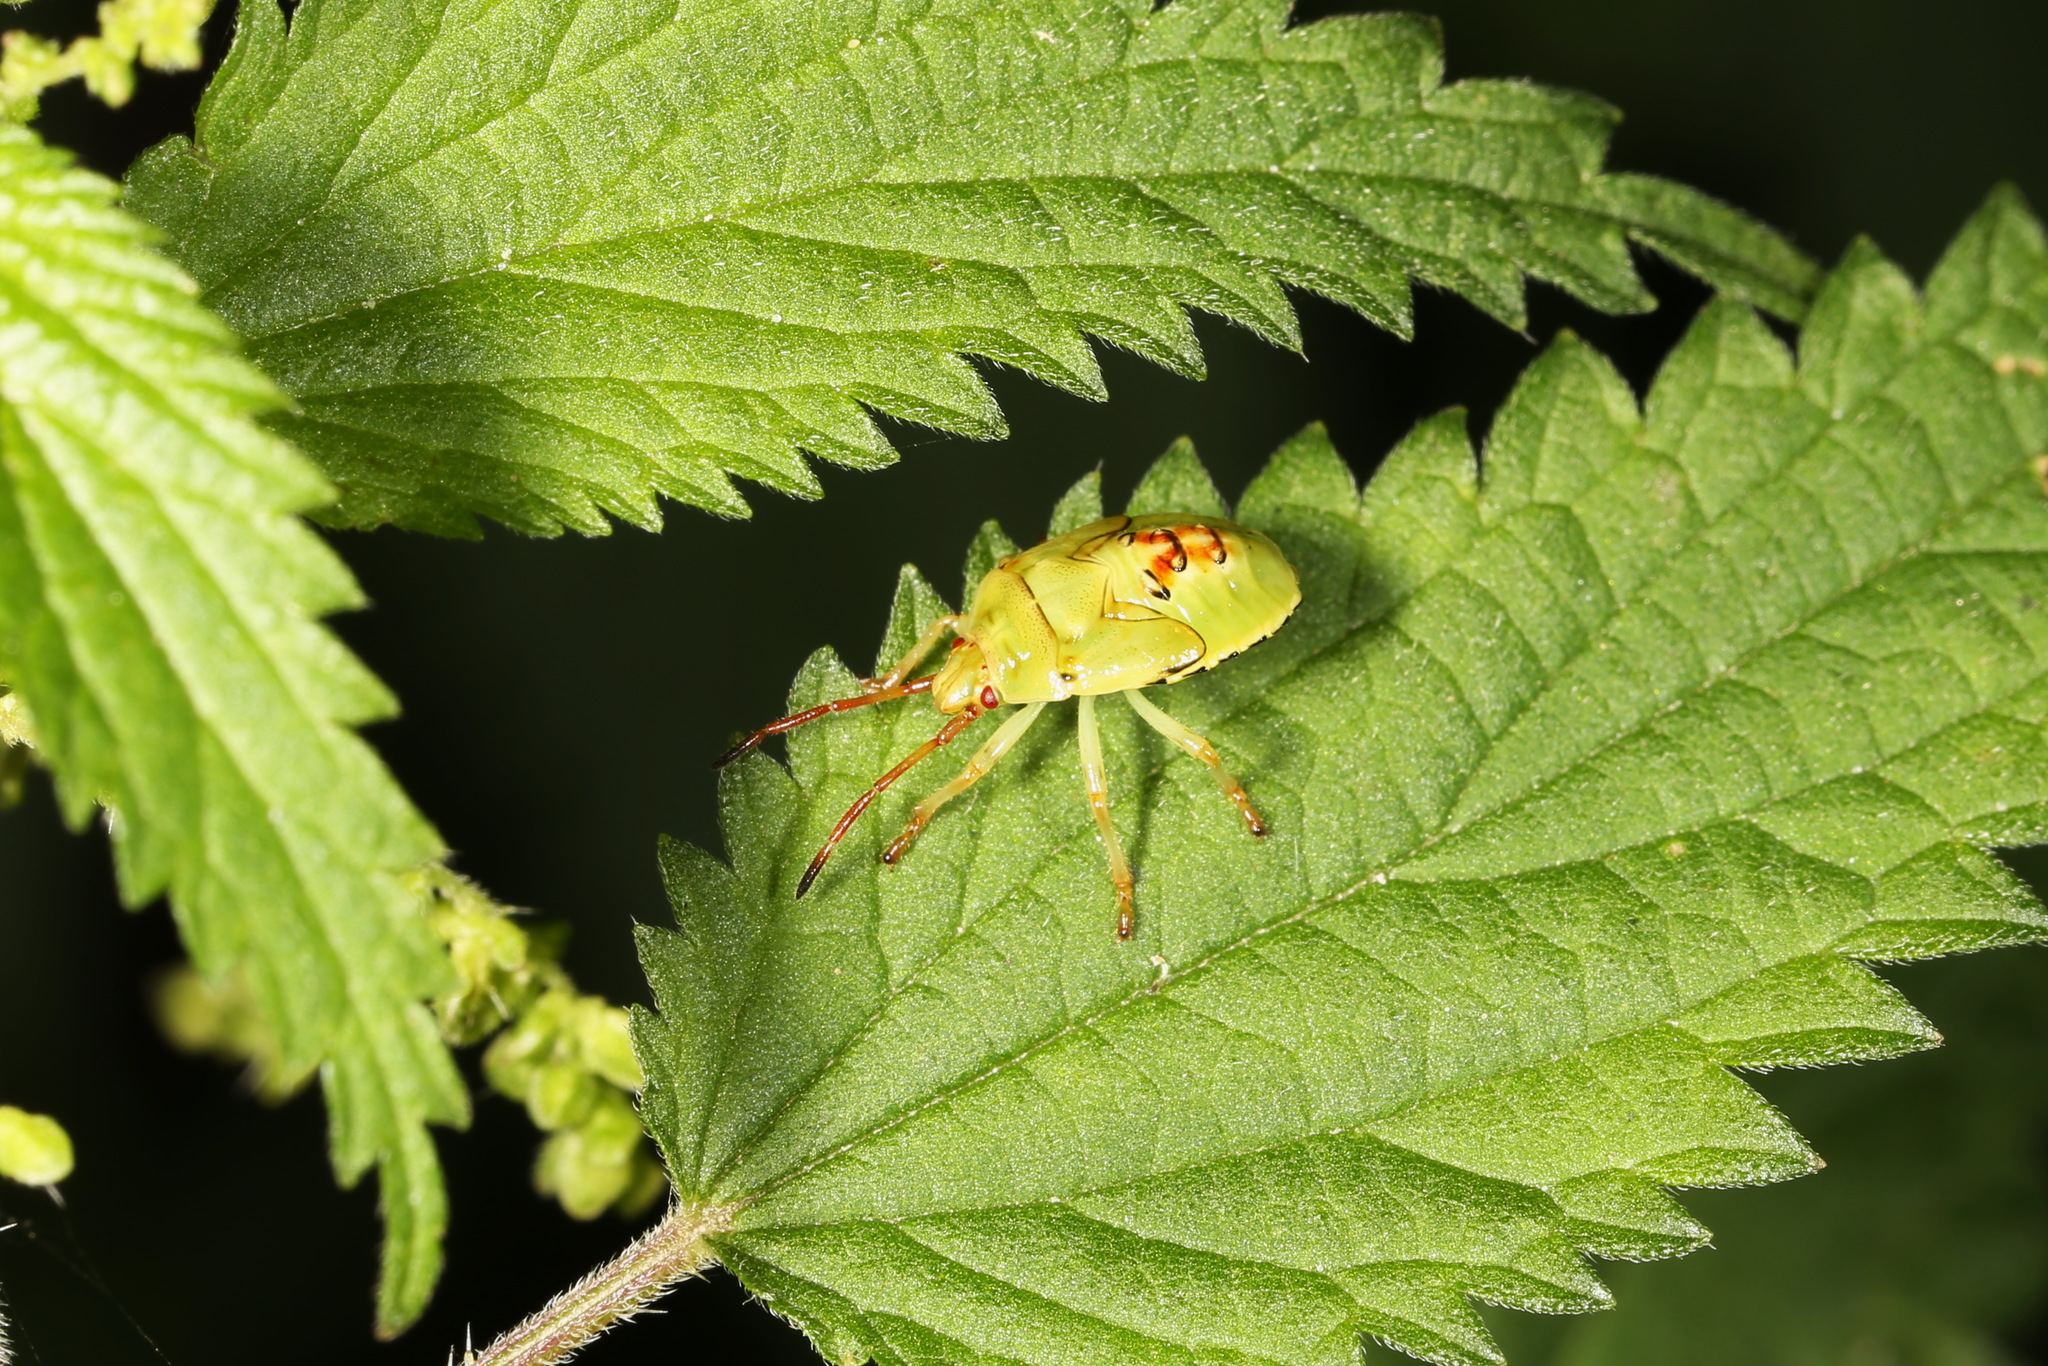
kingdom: Animalia
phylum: Arthropoda
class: Insecta
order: Hemiptera
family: Acanthosomatidae
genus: Elasmostethus
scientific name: Elasmostethus interstinctus
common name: Birch shieldbug
